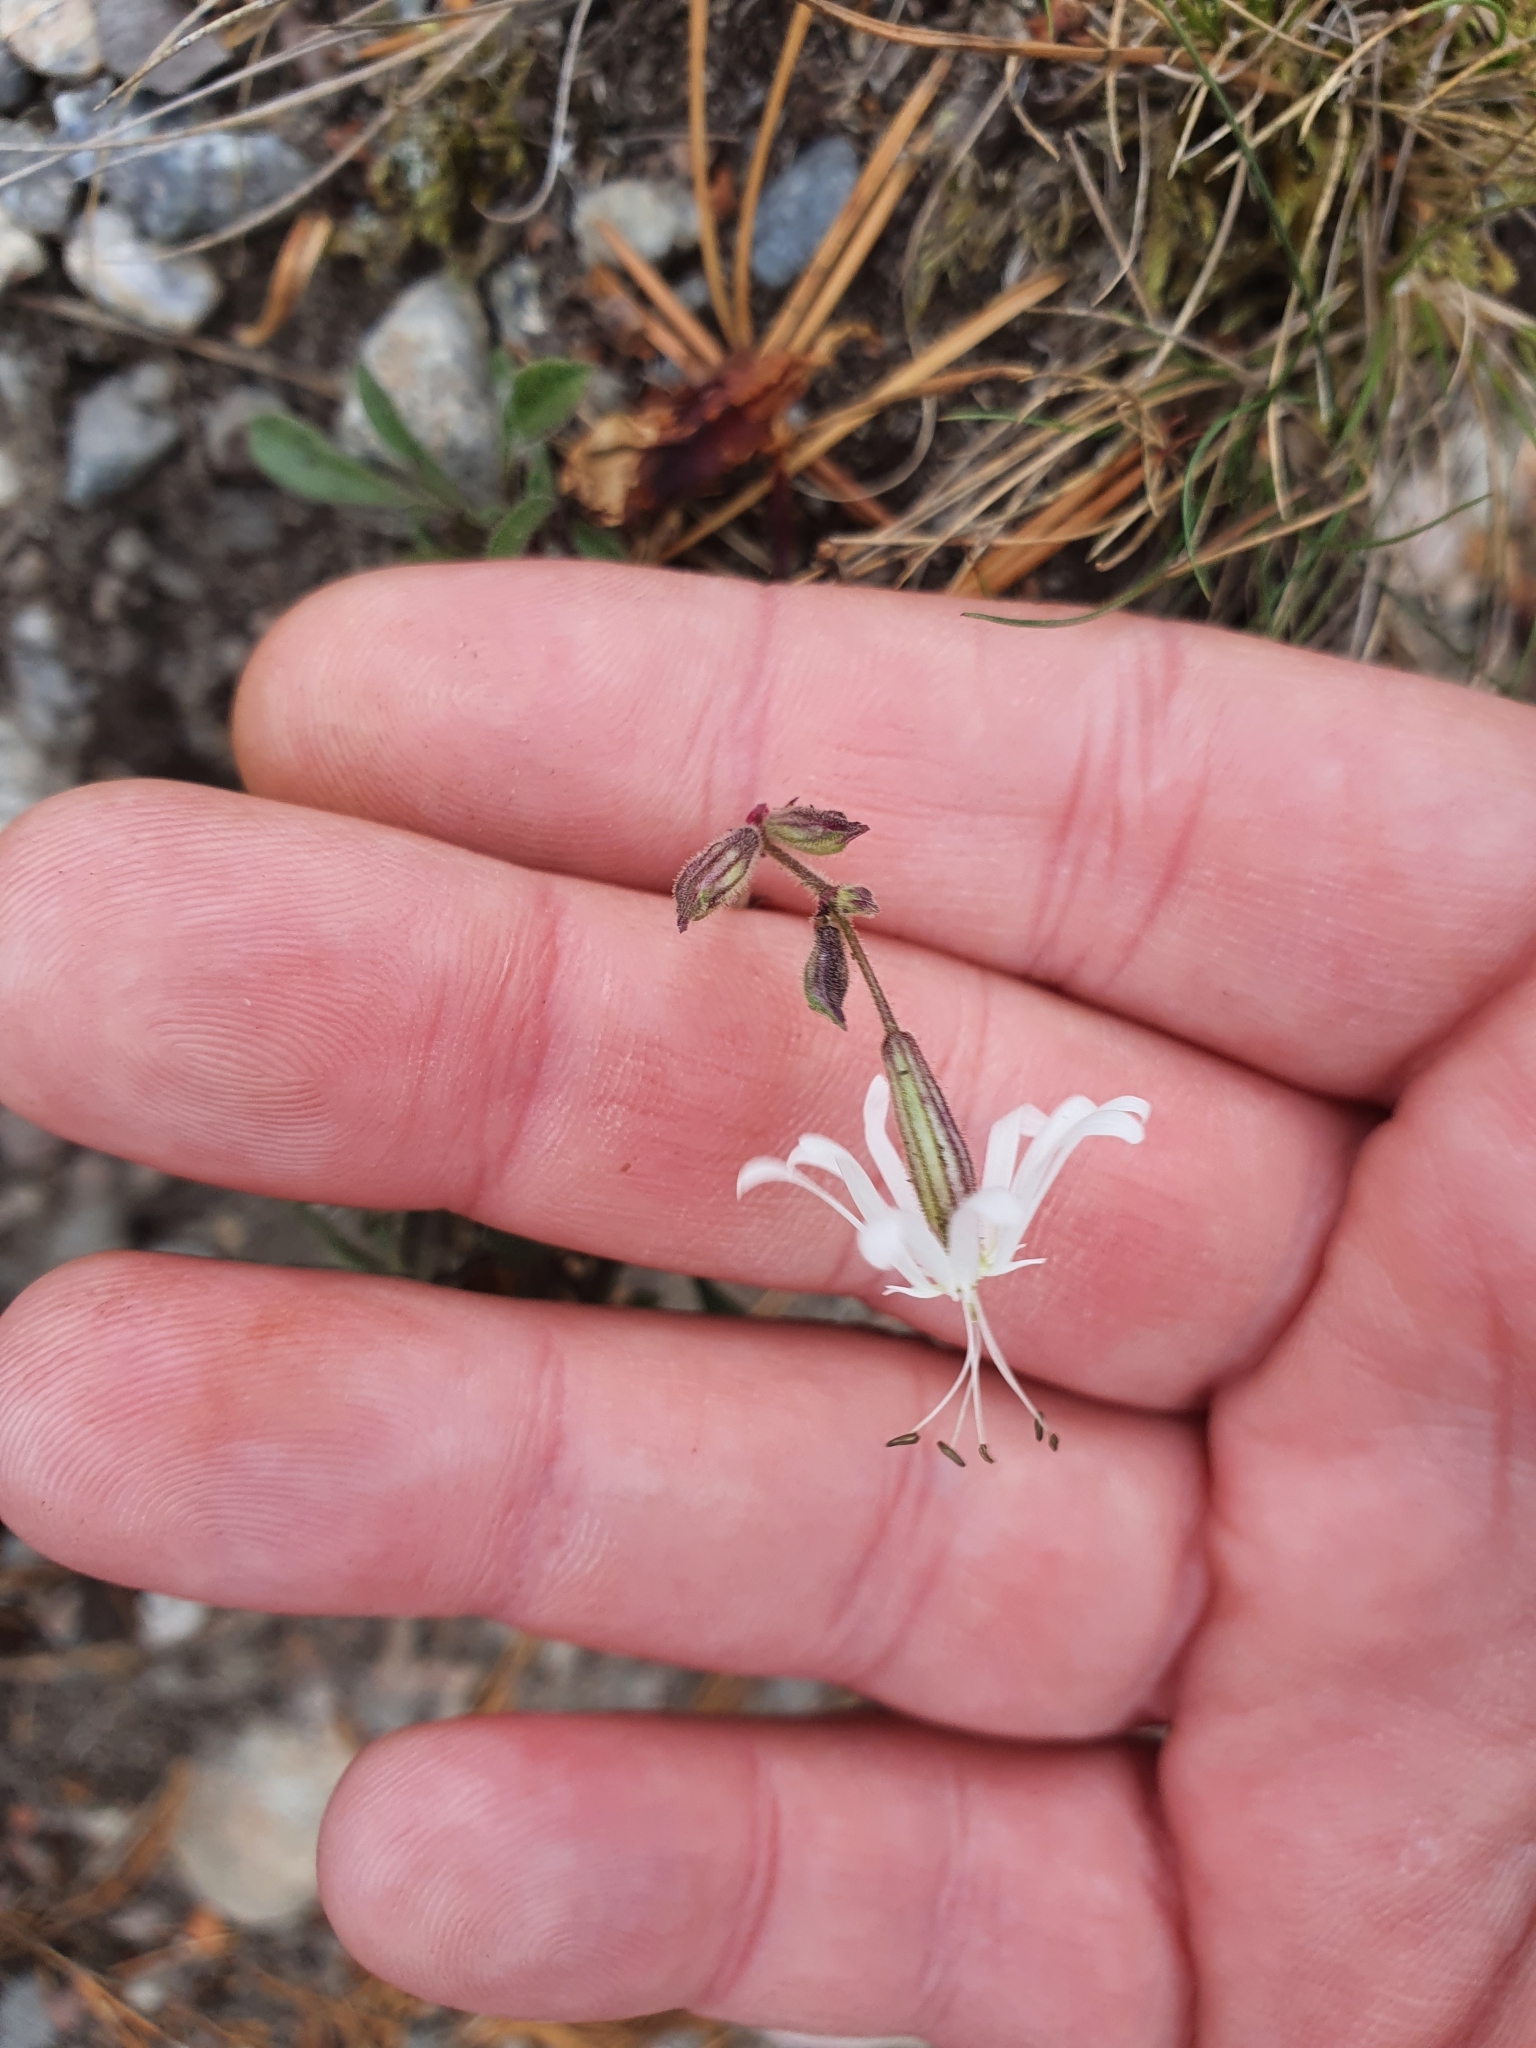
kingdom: Plantae
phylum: Tracheophyta
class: Magnoliopsida
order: Caryophyllales
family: Caryophyllaceae
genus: Silene
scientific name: Silene nutans
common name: Nottingham catchfly
